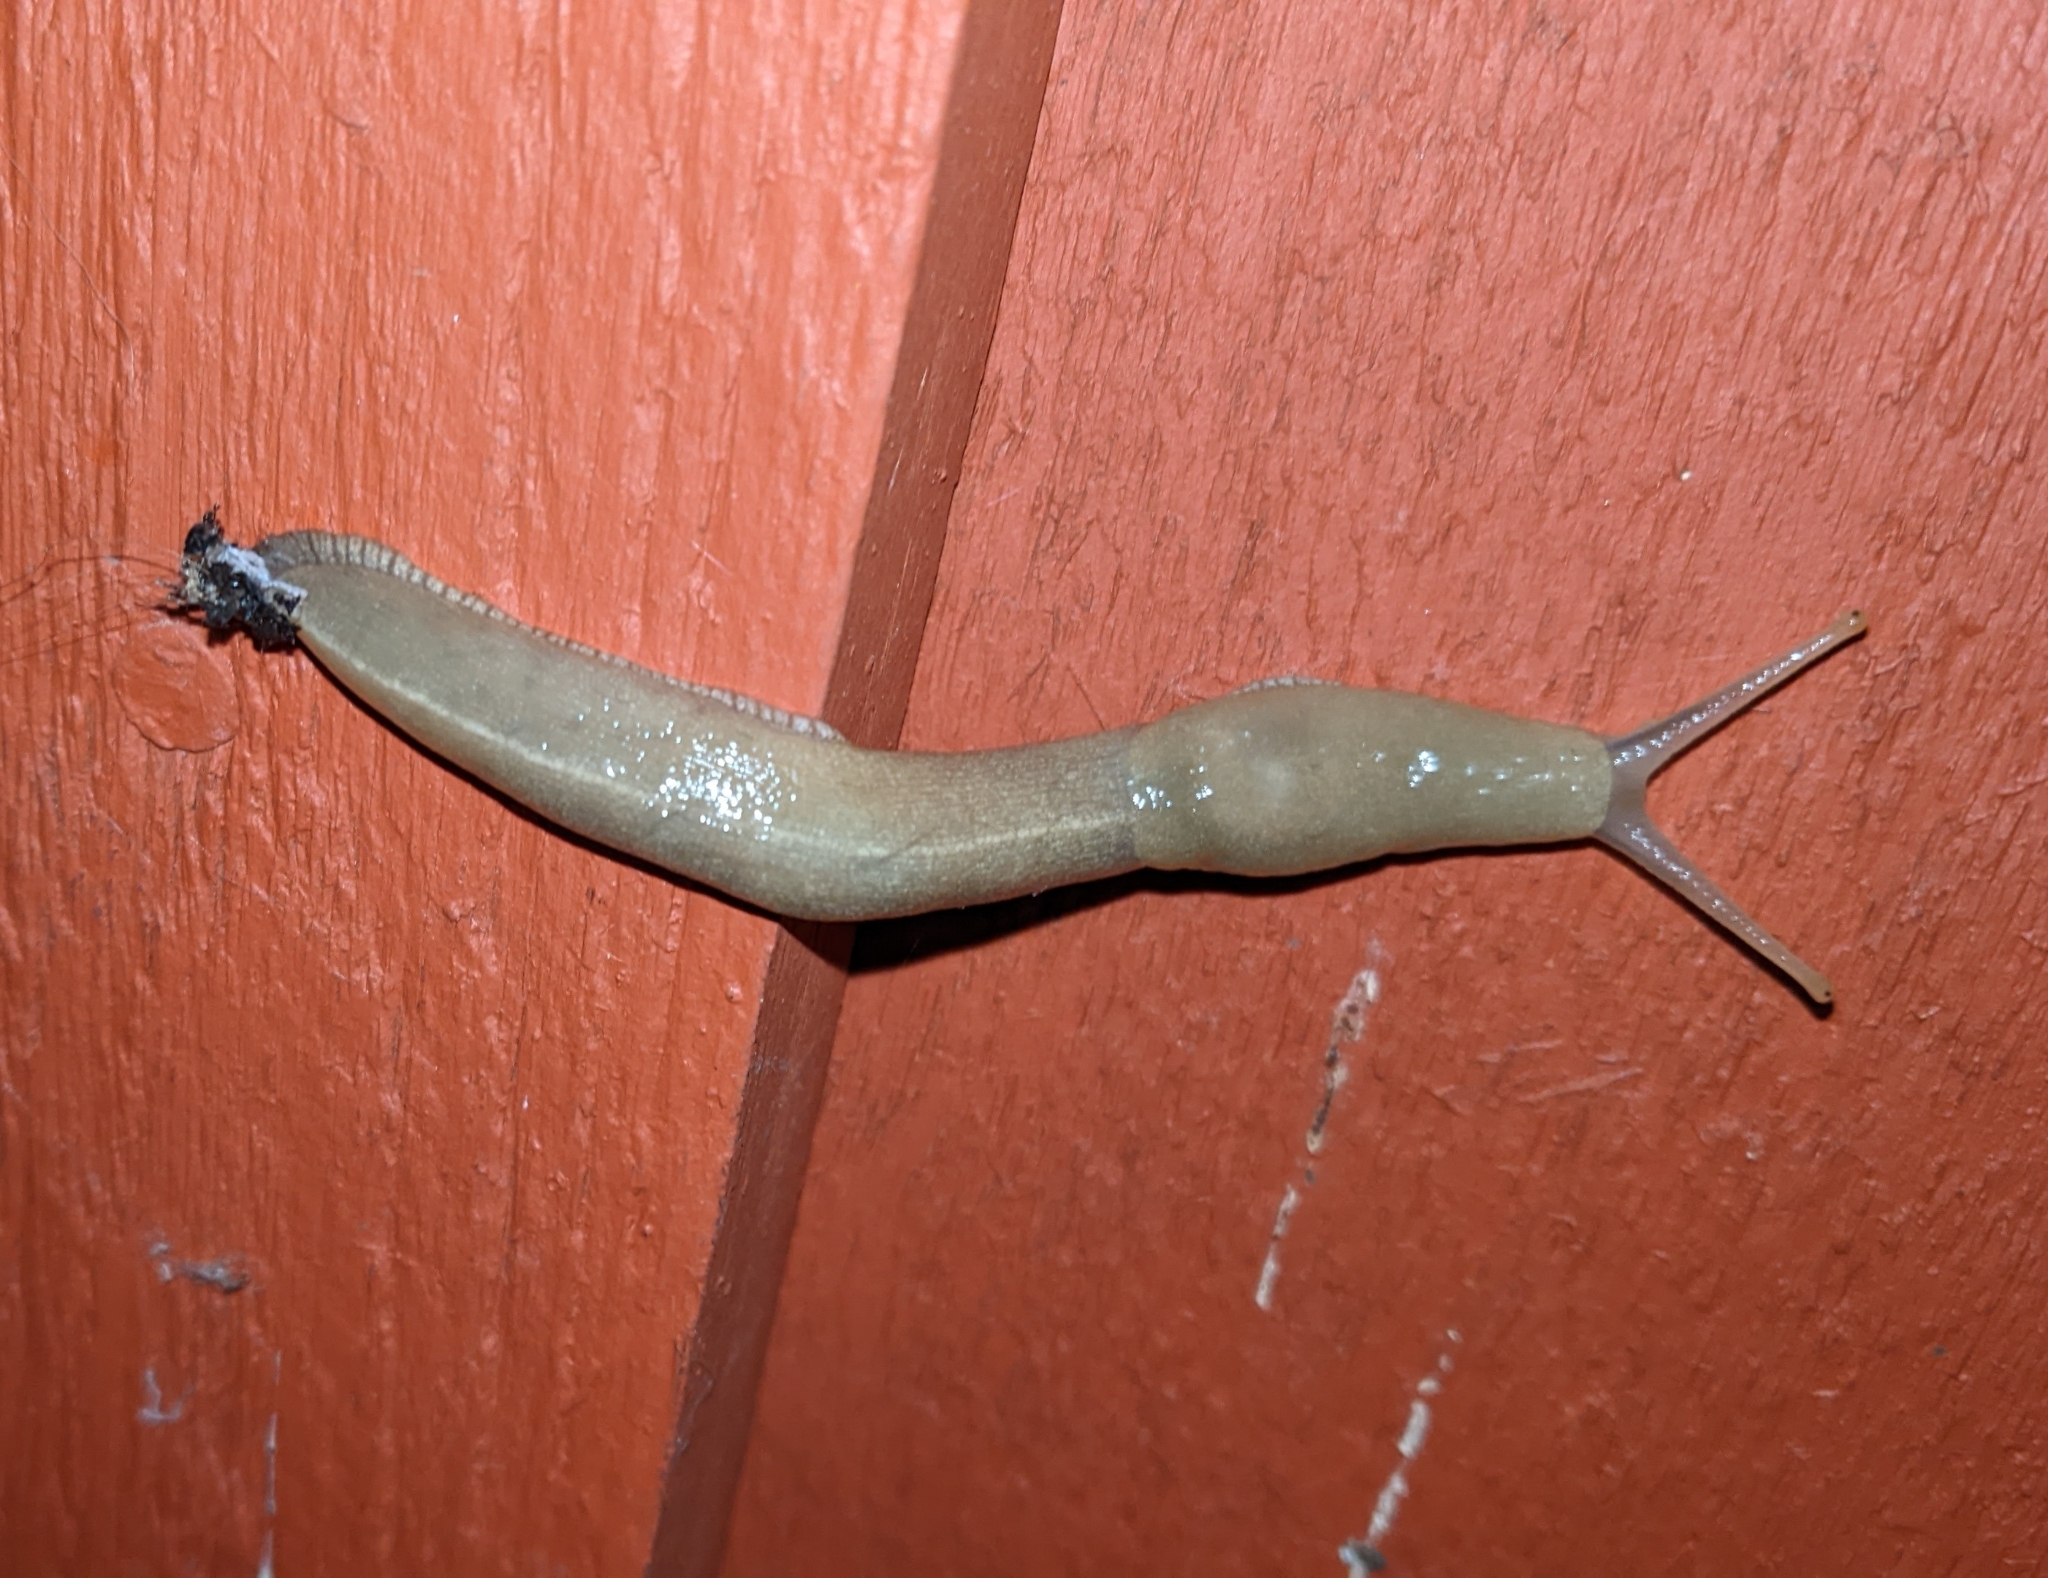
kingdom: Animalia
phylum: Mollusca
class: Gastropoda
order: Stylommatophora
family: Ariolimacidae
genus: Ariolimax
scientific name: Ariolimax columbianus
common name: Pacific banana slug
